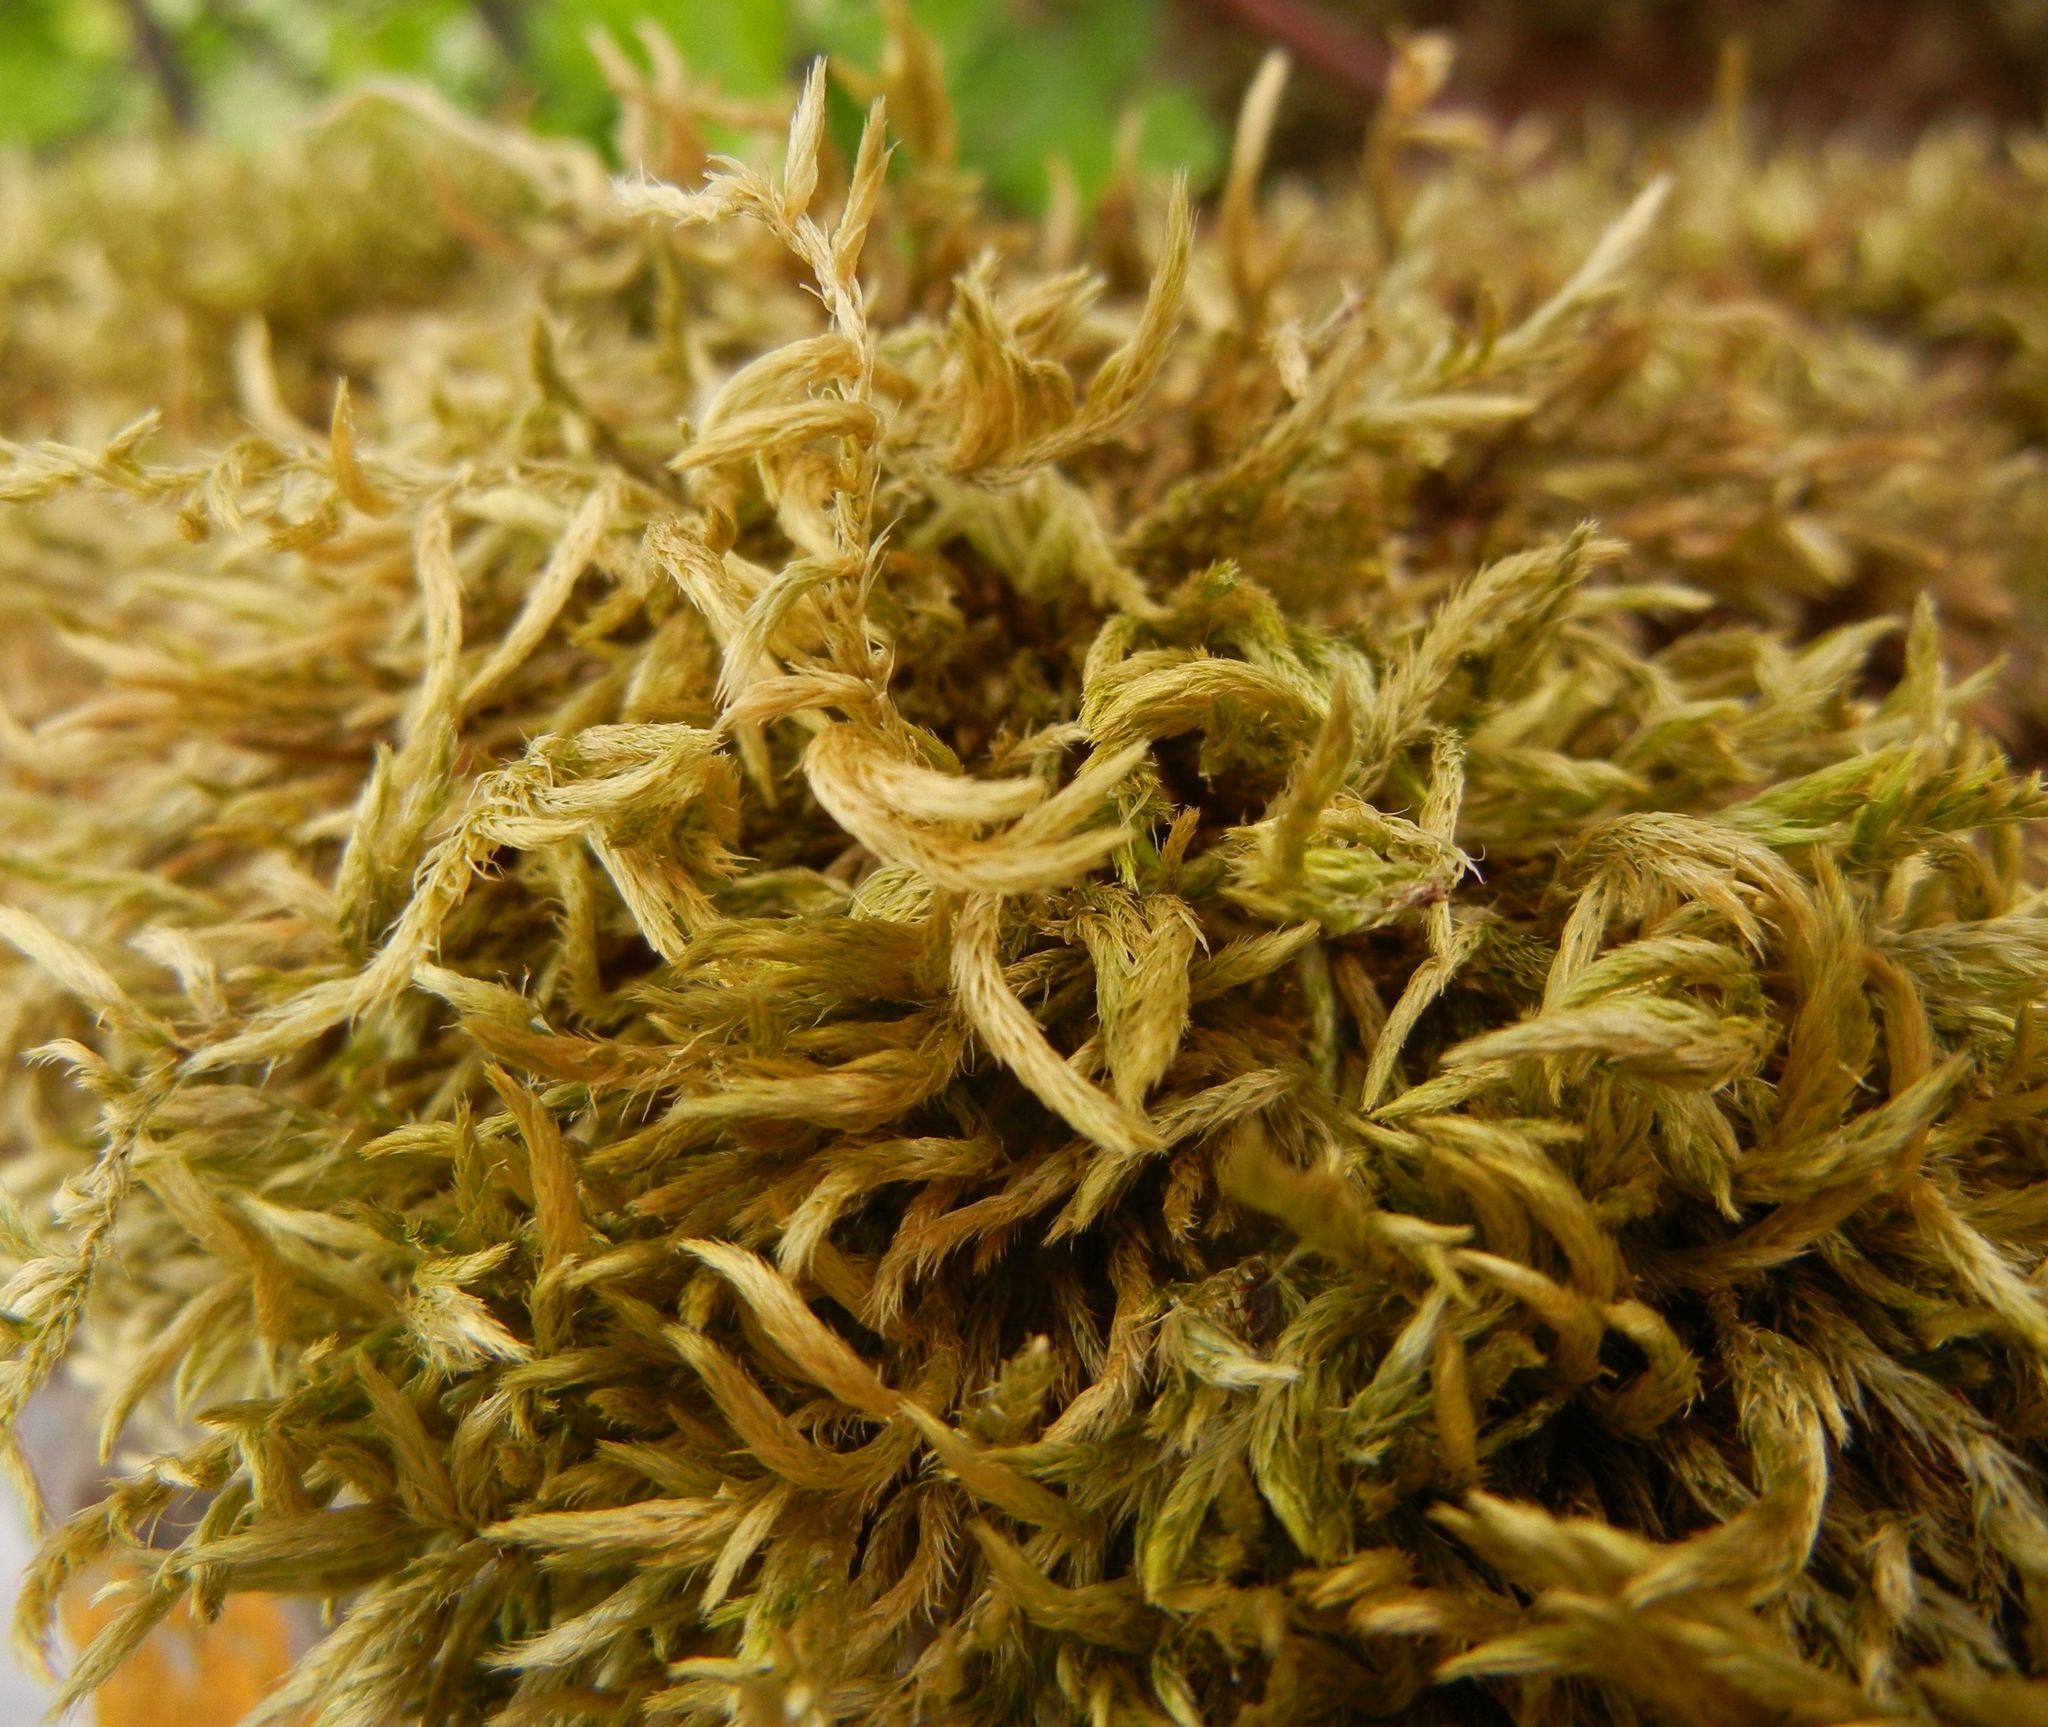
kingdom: Plantae
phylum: Bryophyta
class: Bryopsida
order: Hypnales
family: Brachytheciaceae
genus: Homalothecium
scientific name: Homalothecium lutescens
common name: Yellow feather-moss
